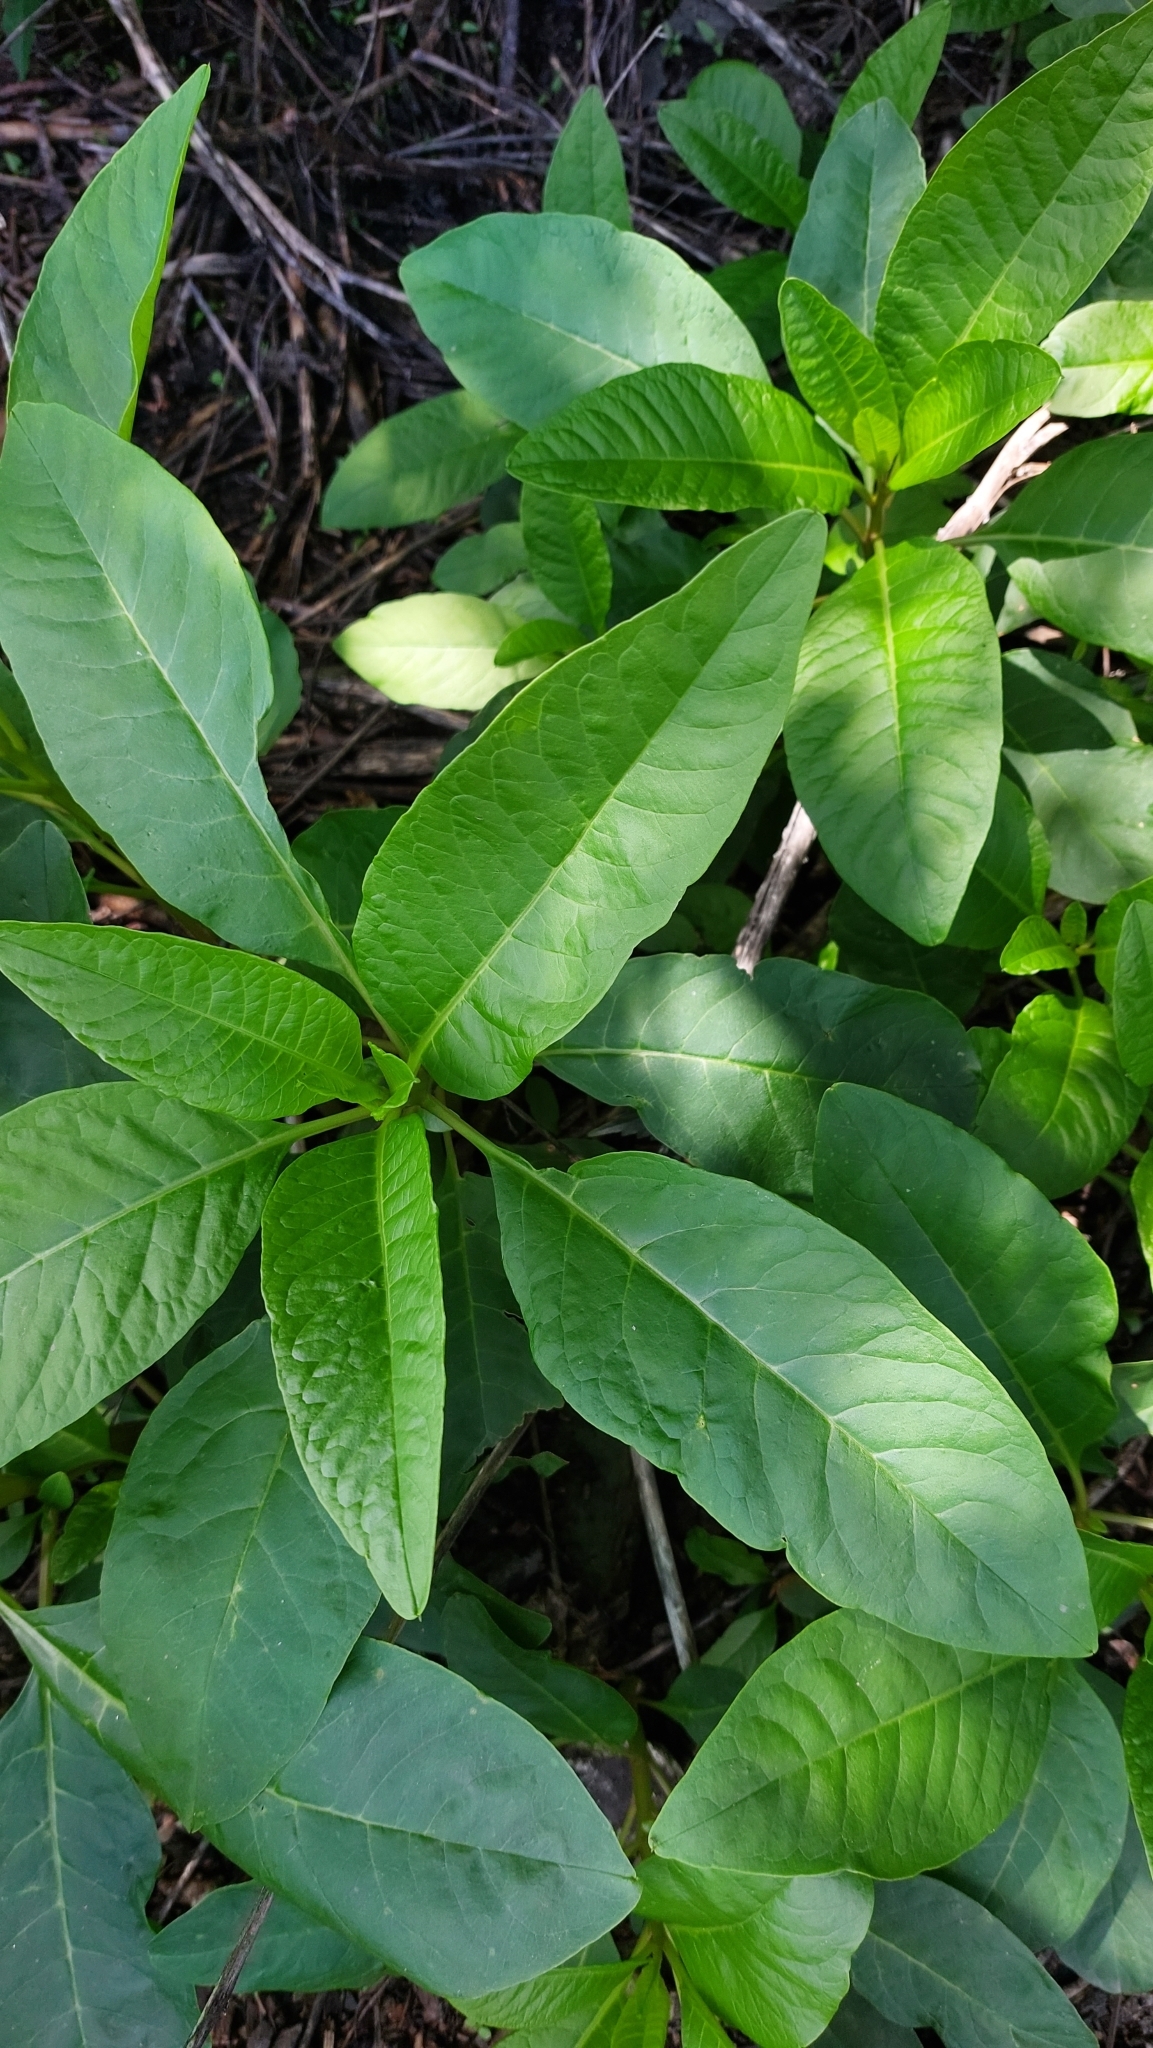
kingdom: Plantae
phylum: Tracheophyta
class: Magnoliopsida
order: Caryophyllales
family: Phytolaccaceae
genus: Phytolacca
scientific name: Phytolacca americana
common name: American pokeweed
